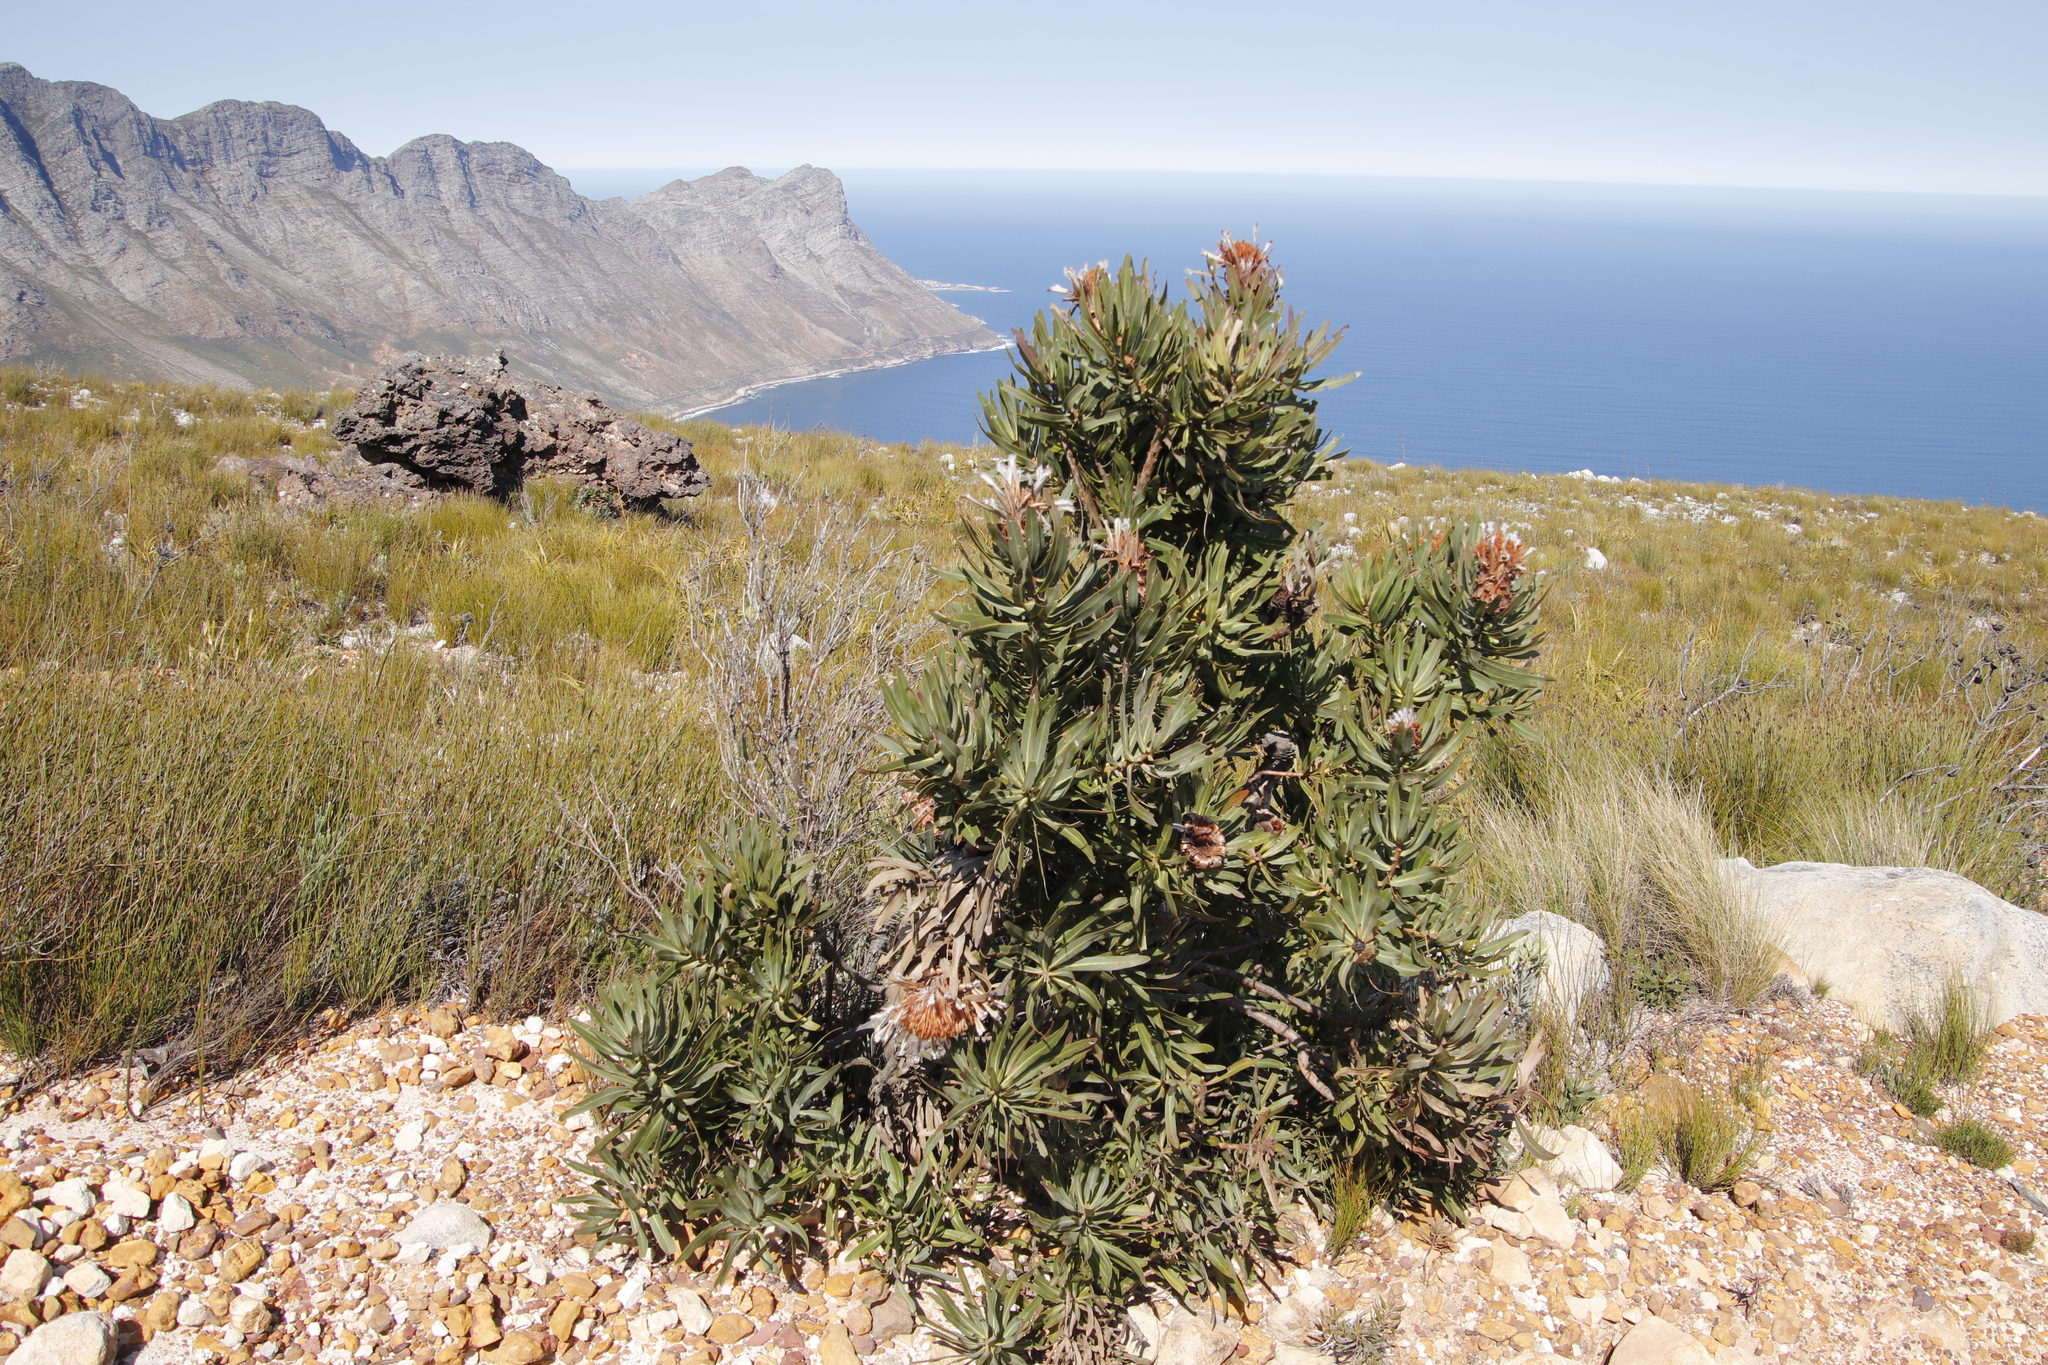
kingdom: Plantae
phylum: Tracheophyta
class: Magnoliopsida
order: Proteales
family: Proteaceae
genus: Protea
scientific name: Protea neriifolia
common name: Blue sugarbush
